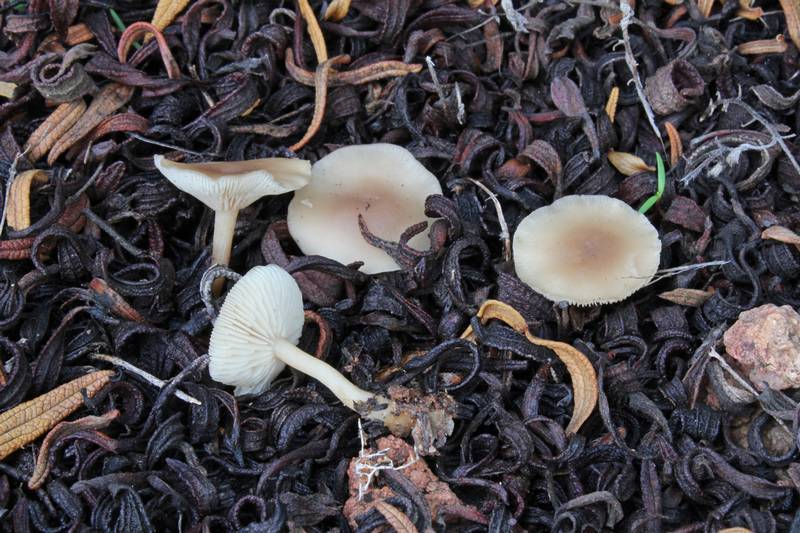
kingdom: Fungi
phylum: Basidiomycota
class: Agaricomycetes
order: Agaricales
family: Tricholomataceae
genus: Clitocybe
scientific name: Clitocybe cistophila
